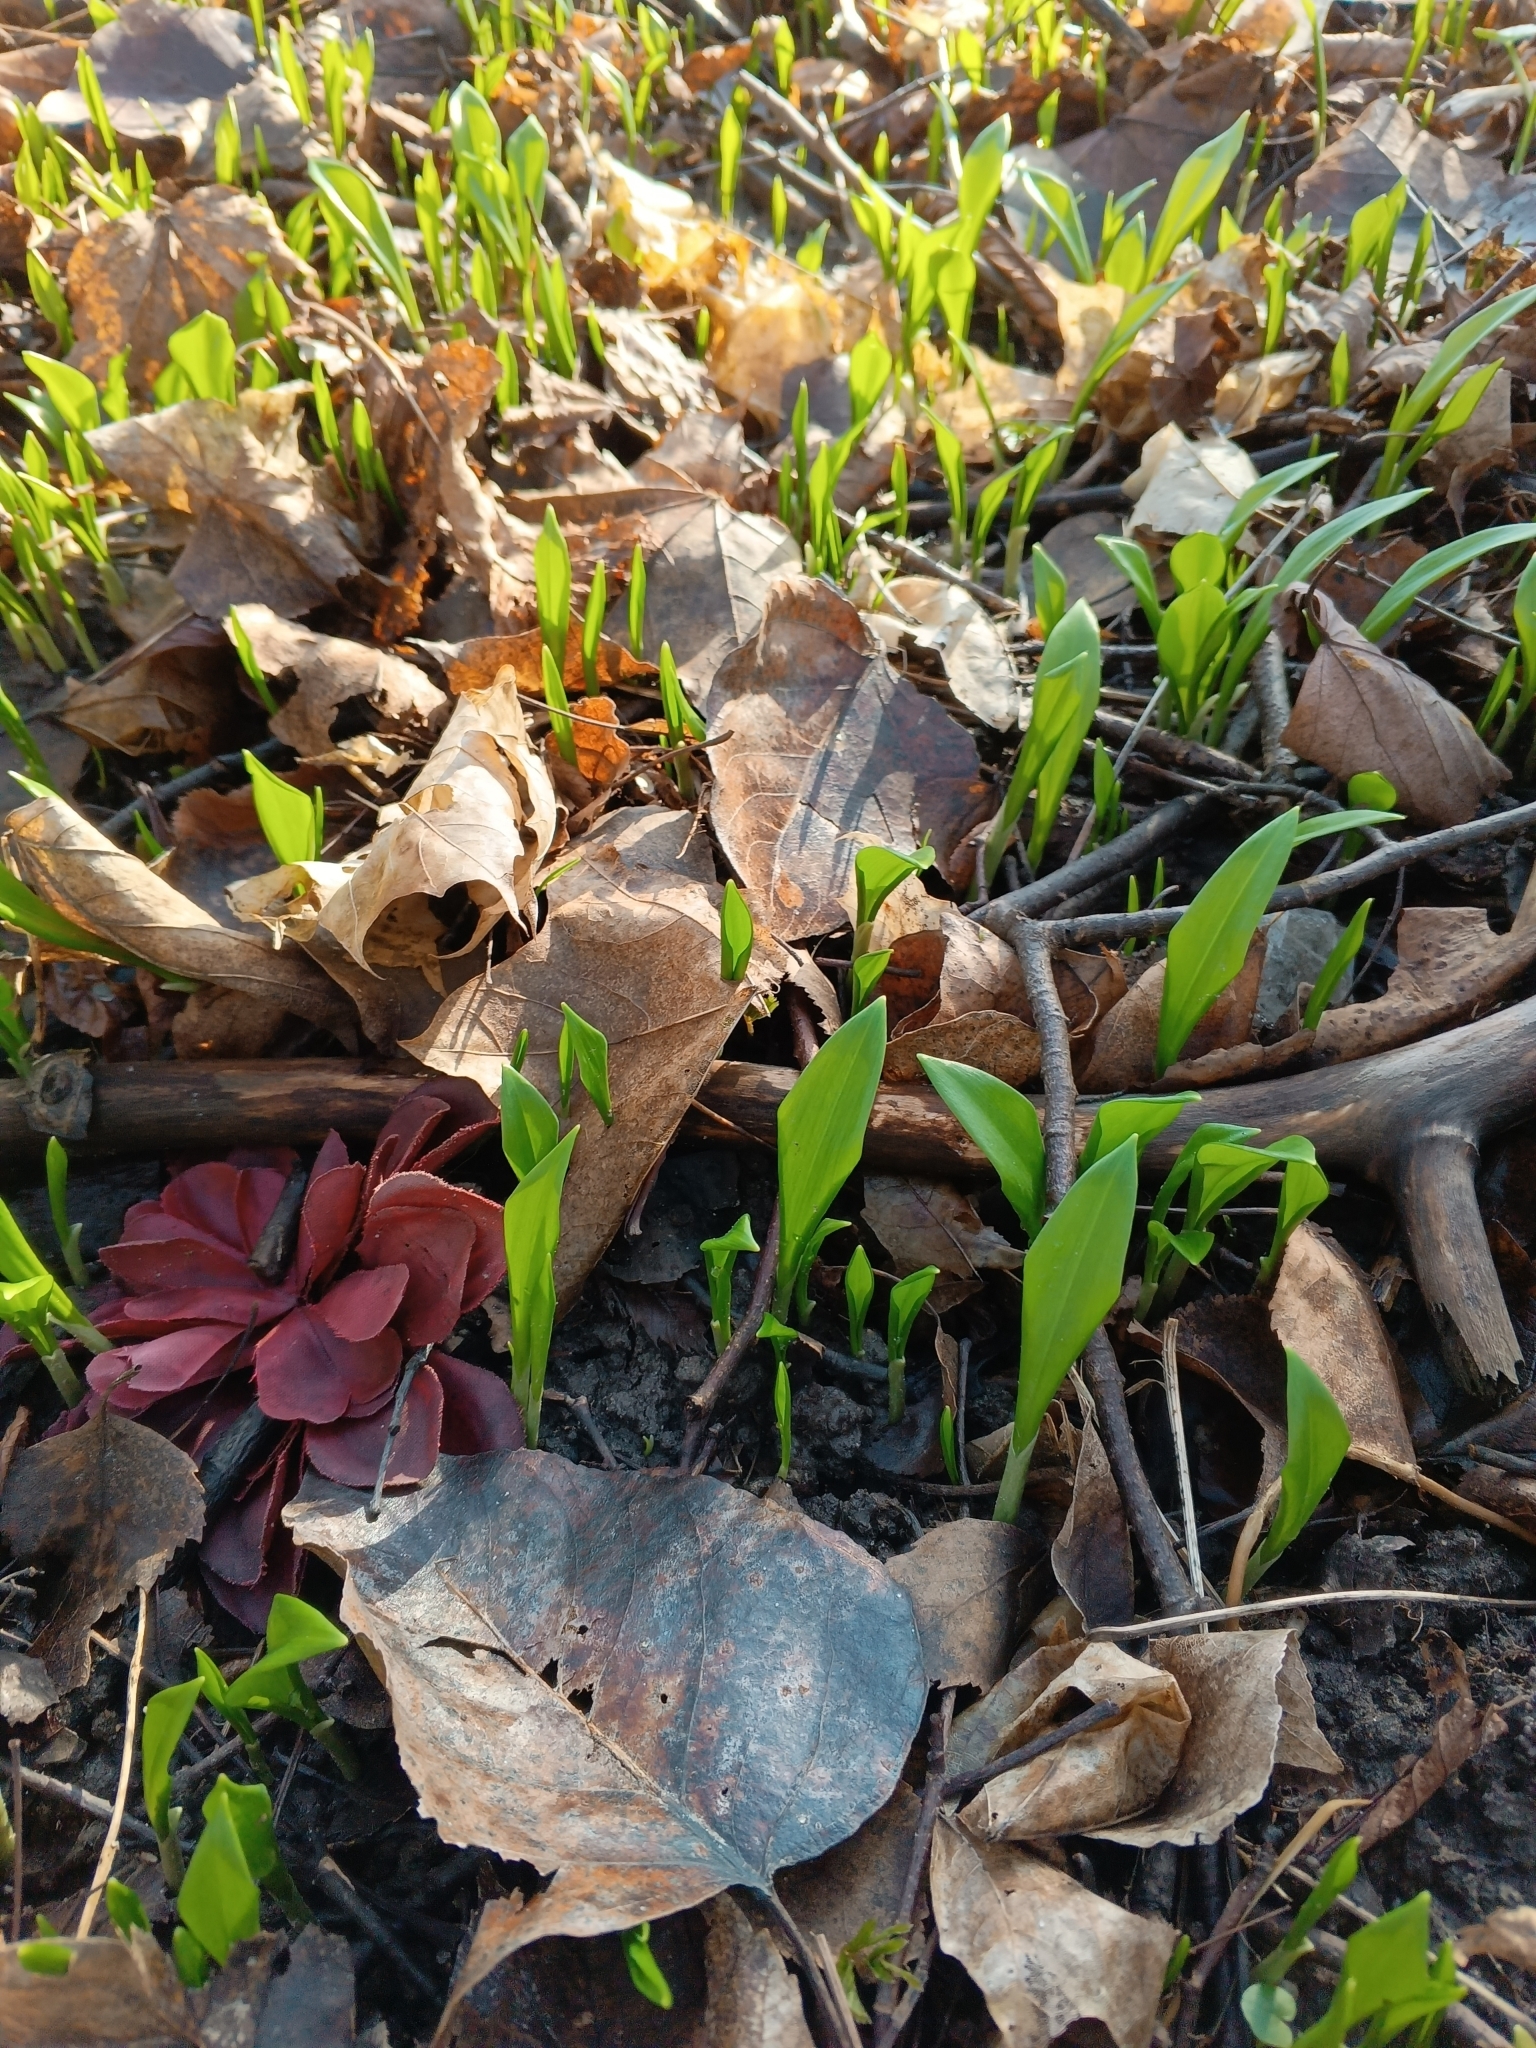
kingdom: Plantae
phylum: Tracheophyta
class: Liliopsida
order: Asparagales
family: Amaryllidaceae
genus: Allium
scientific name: Allium ursinum
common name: Ramsons
